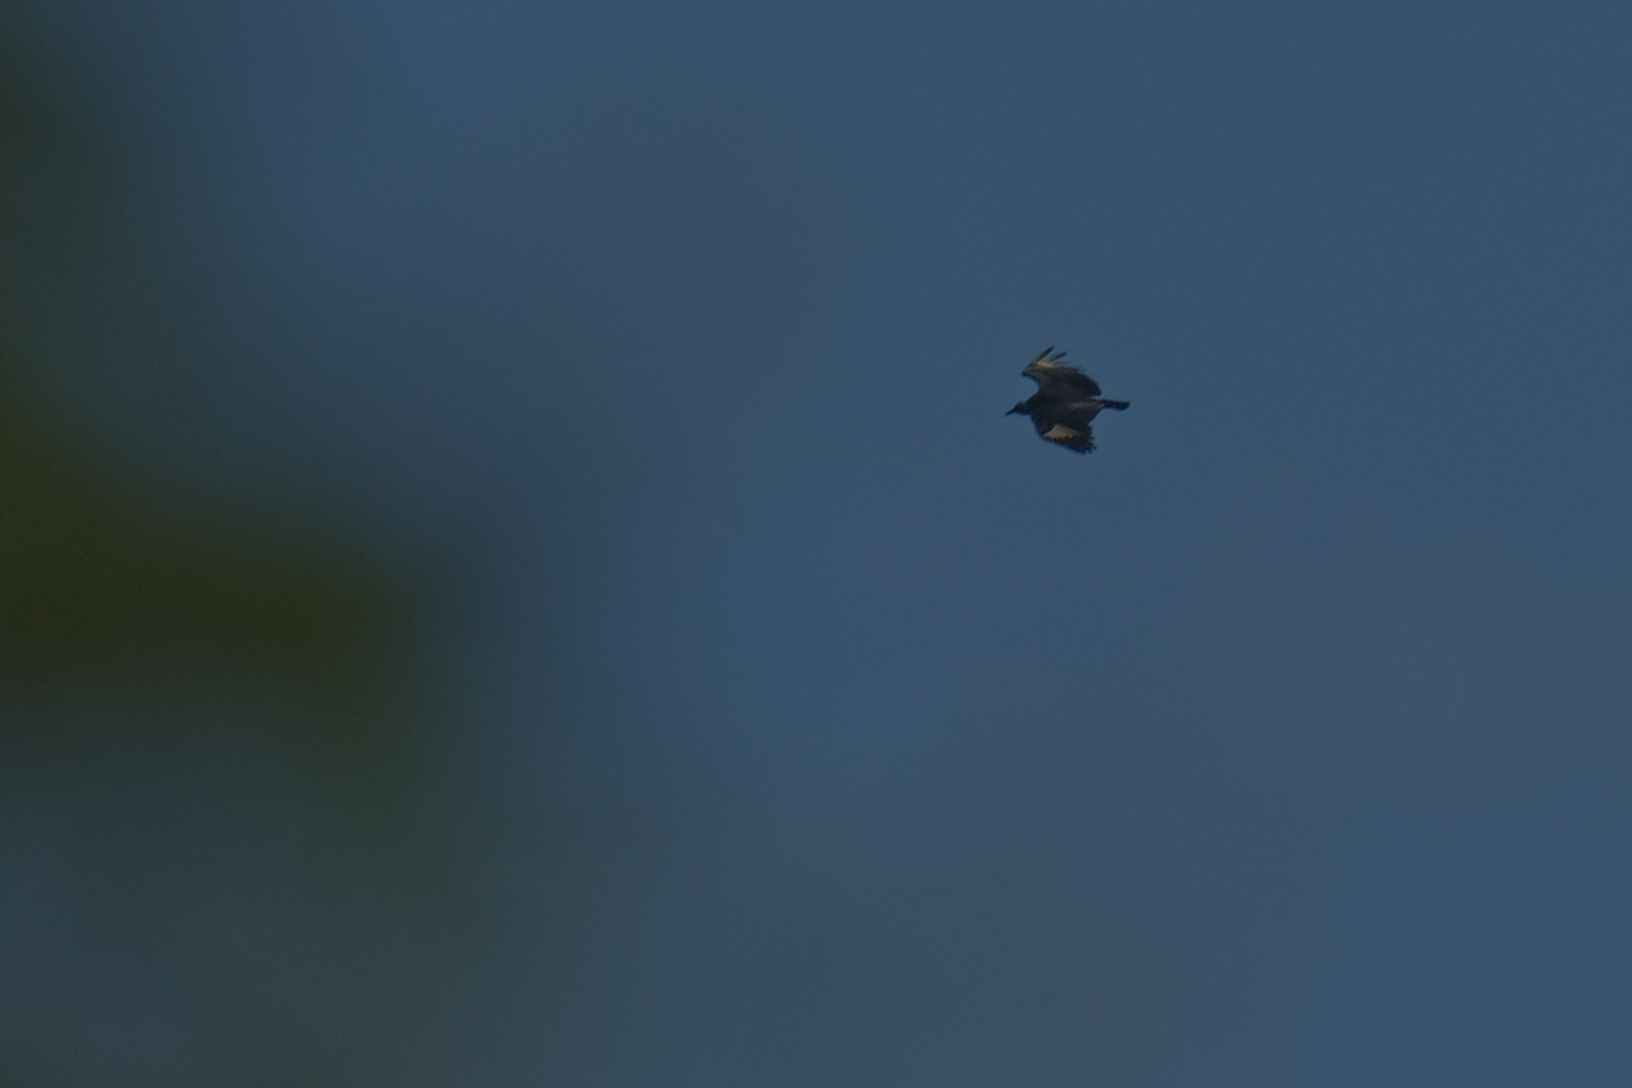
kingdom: Animalia
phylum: Chordata
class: Aves
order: Accipitriformes
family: Cathartidae
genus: Coragyps
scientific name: Coragyps atratus
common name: Black vulture
